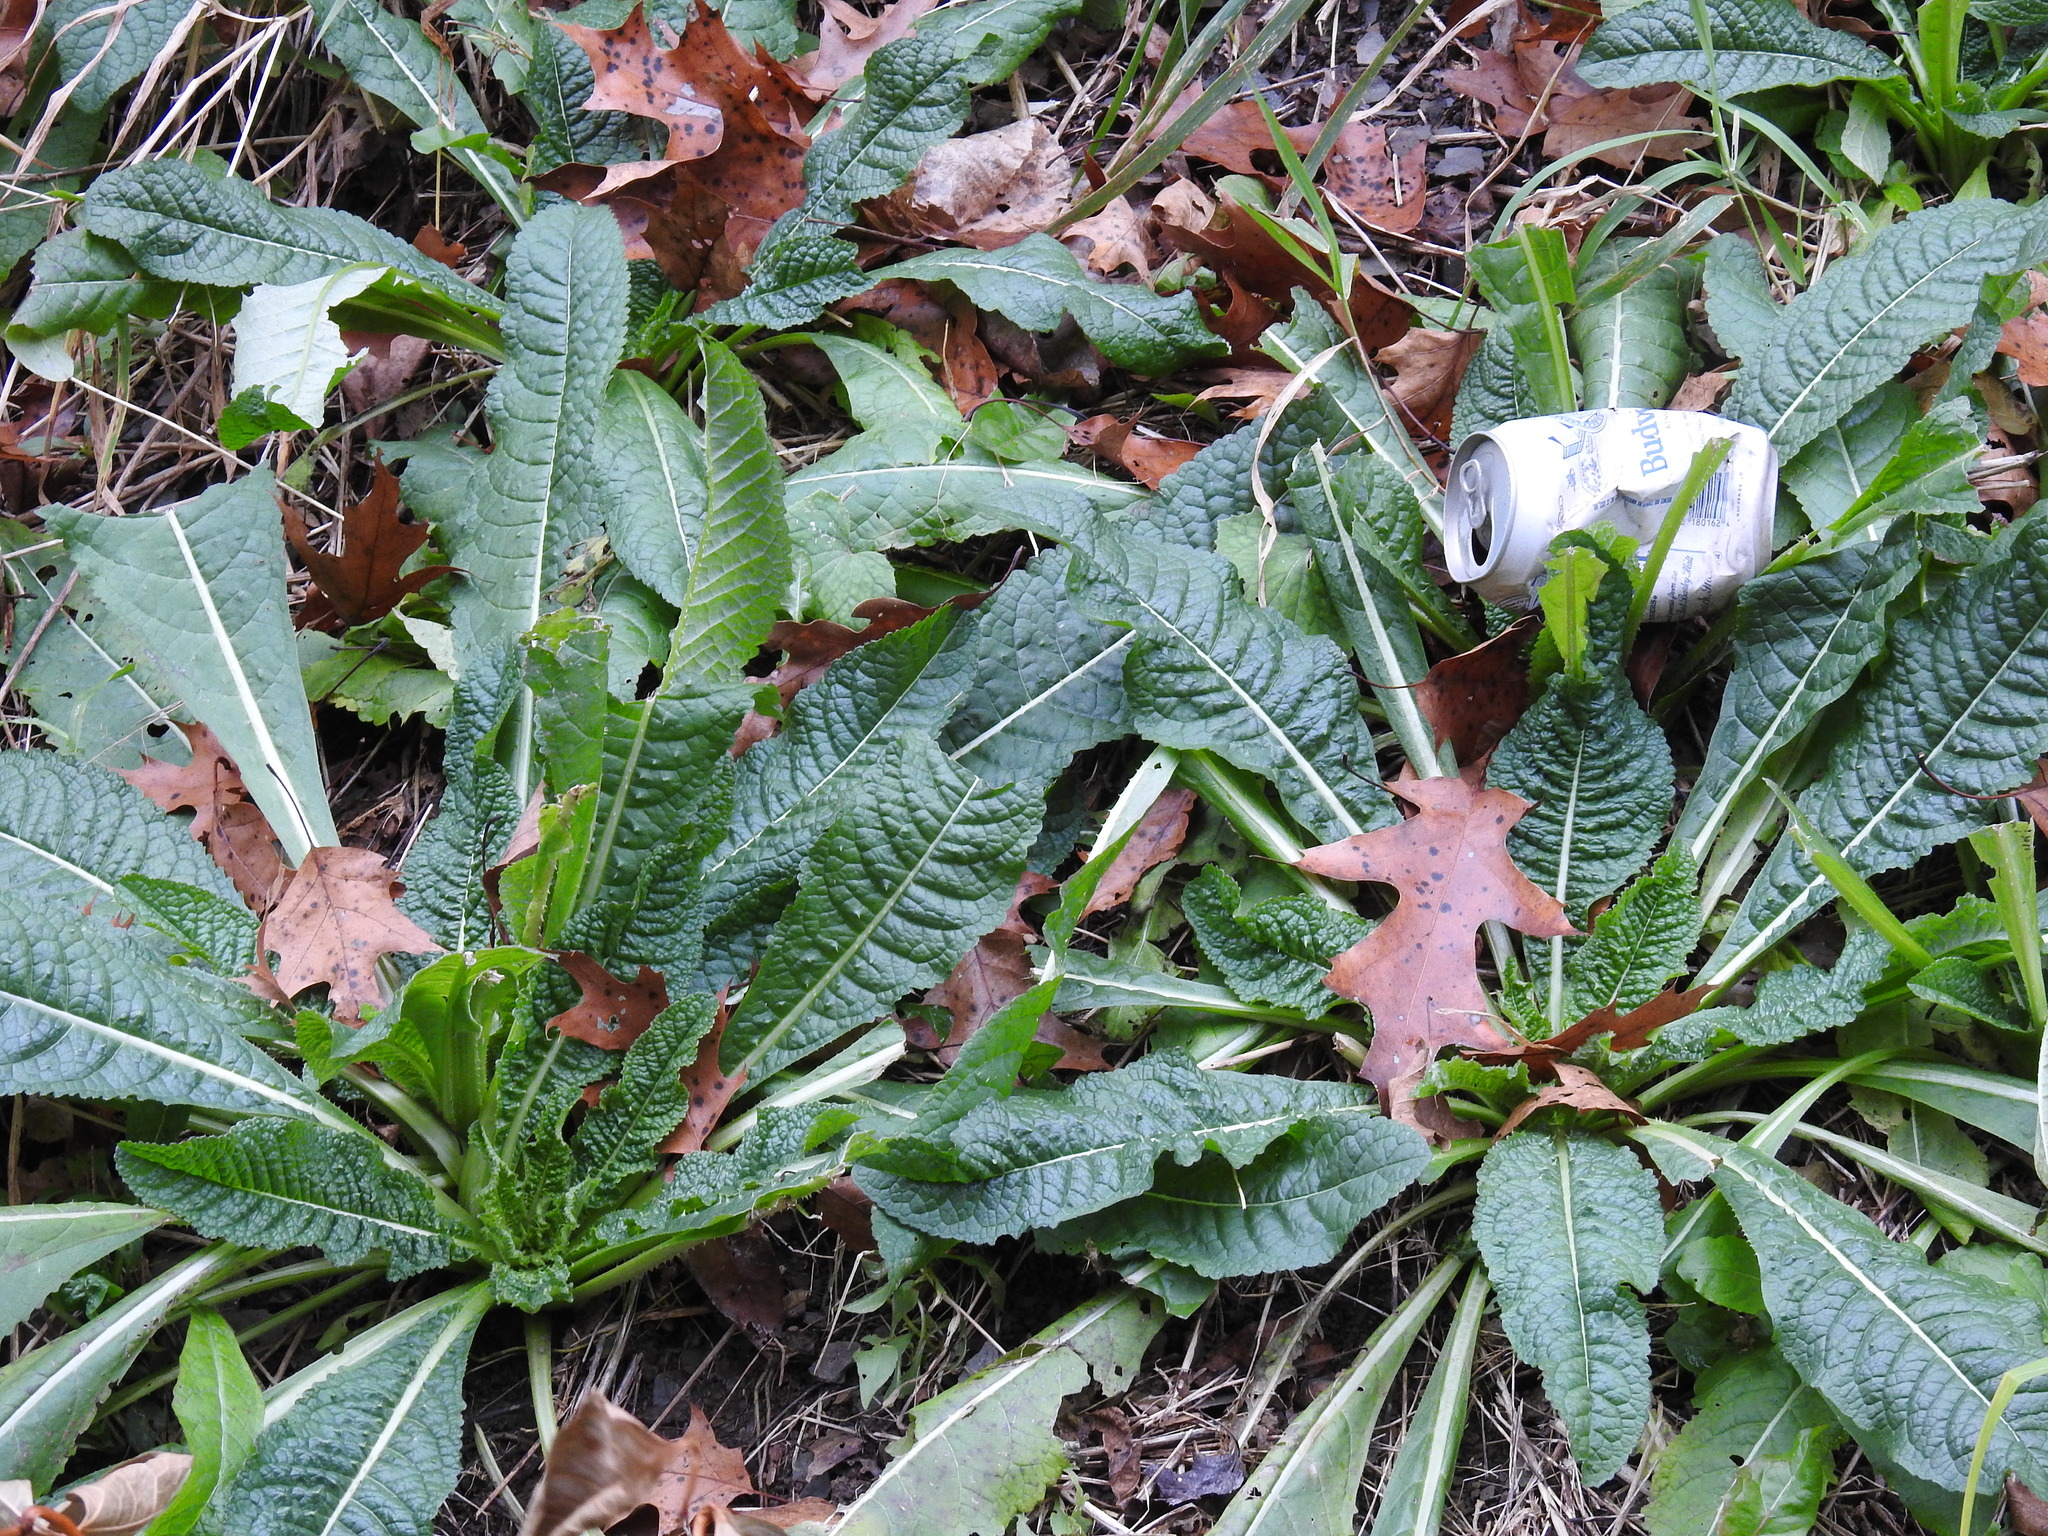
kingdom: Plantae
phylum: Tracheophyta
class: Magnoliopsida
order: Dipsacales
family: Caprifoliaceae
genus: Dipsacus
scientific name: Dipsacus fullonum
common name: Teasel
